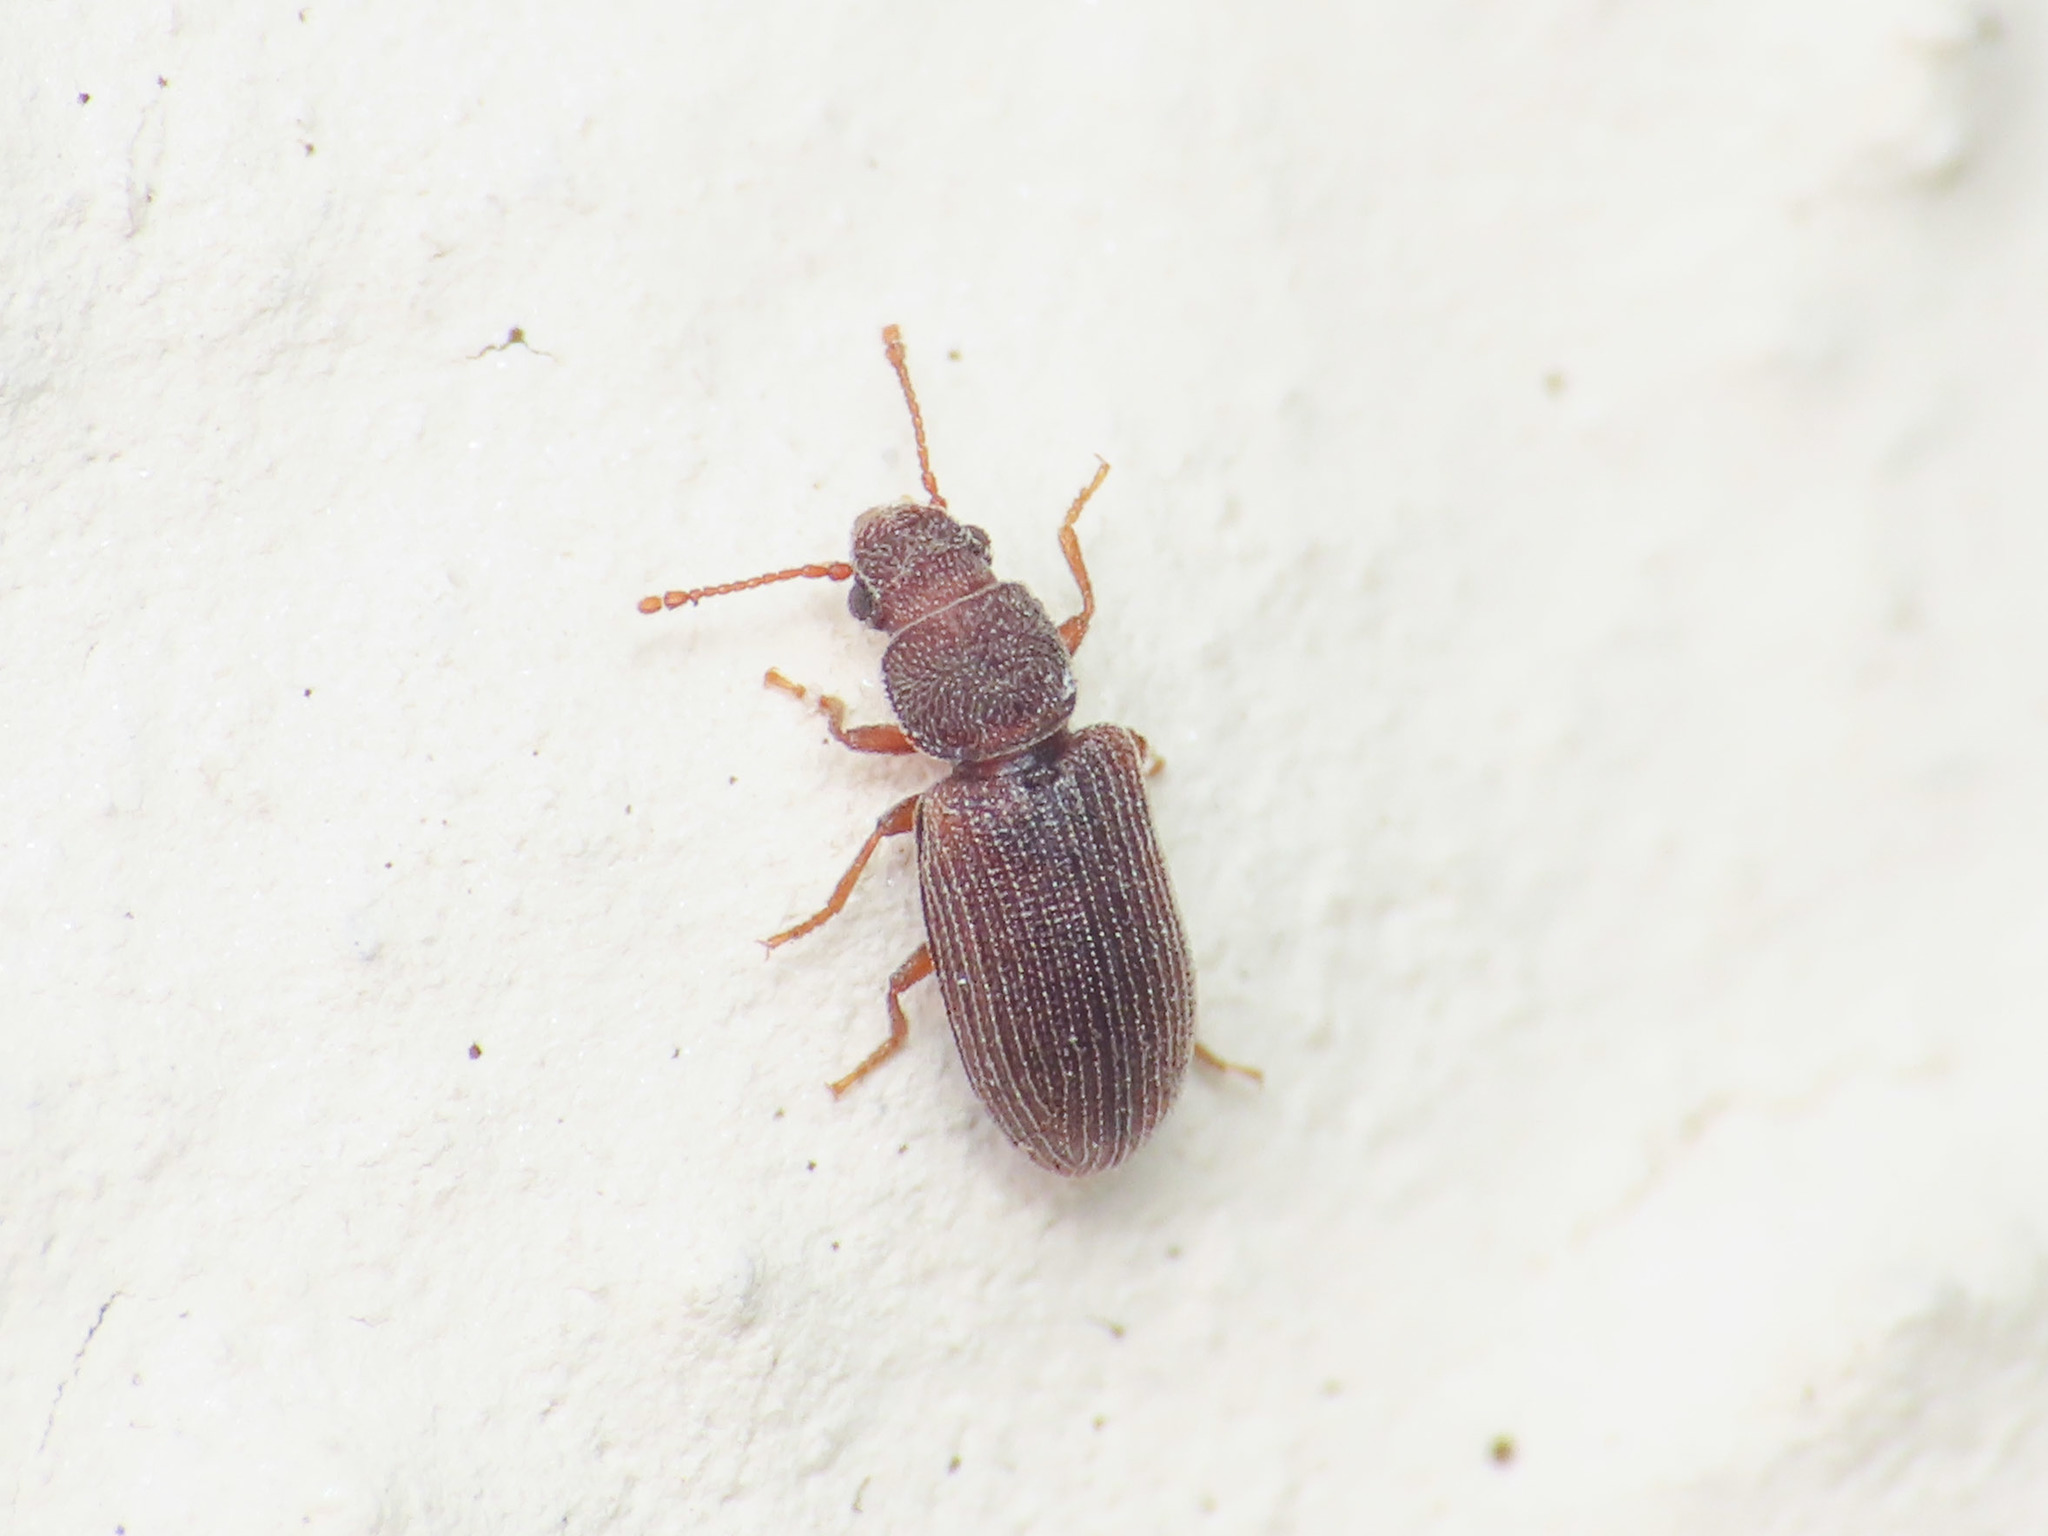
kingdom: Animalia
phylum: Arthropoda
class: Insecta
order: Coleoptera
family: Mycetophagidae
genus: Berginus
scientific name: Berginus tamarisci
